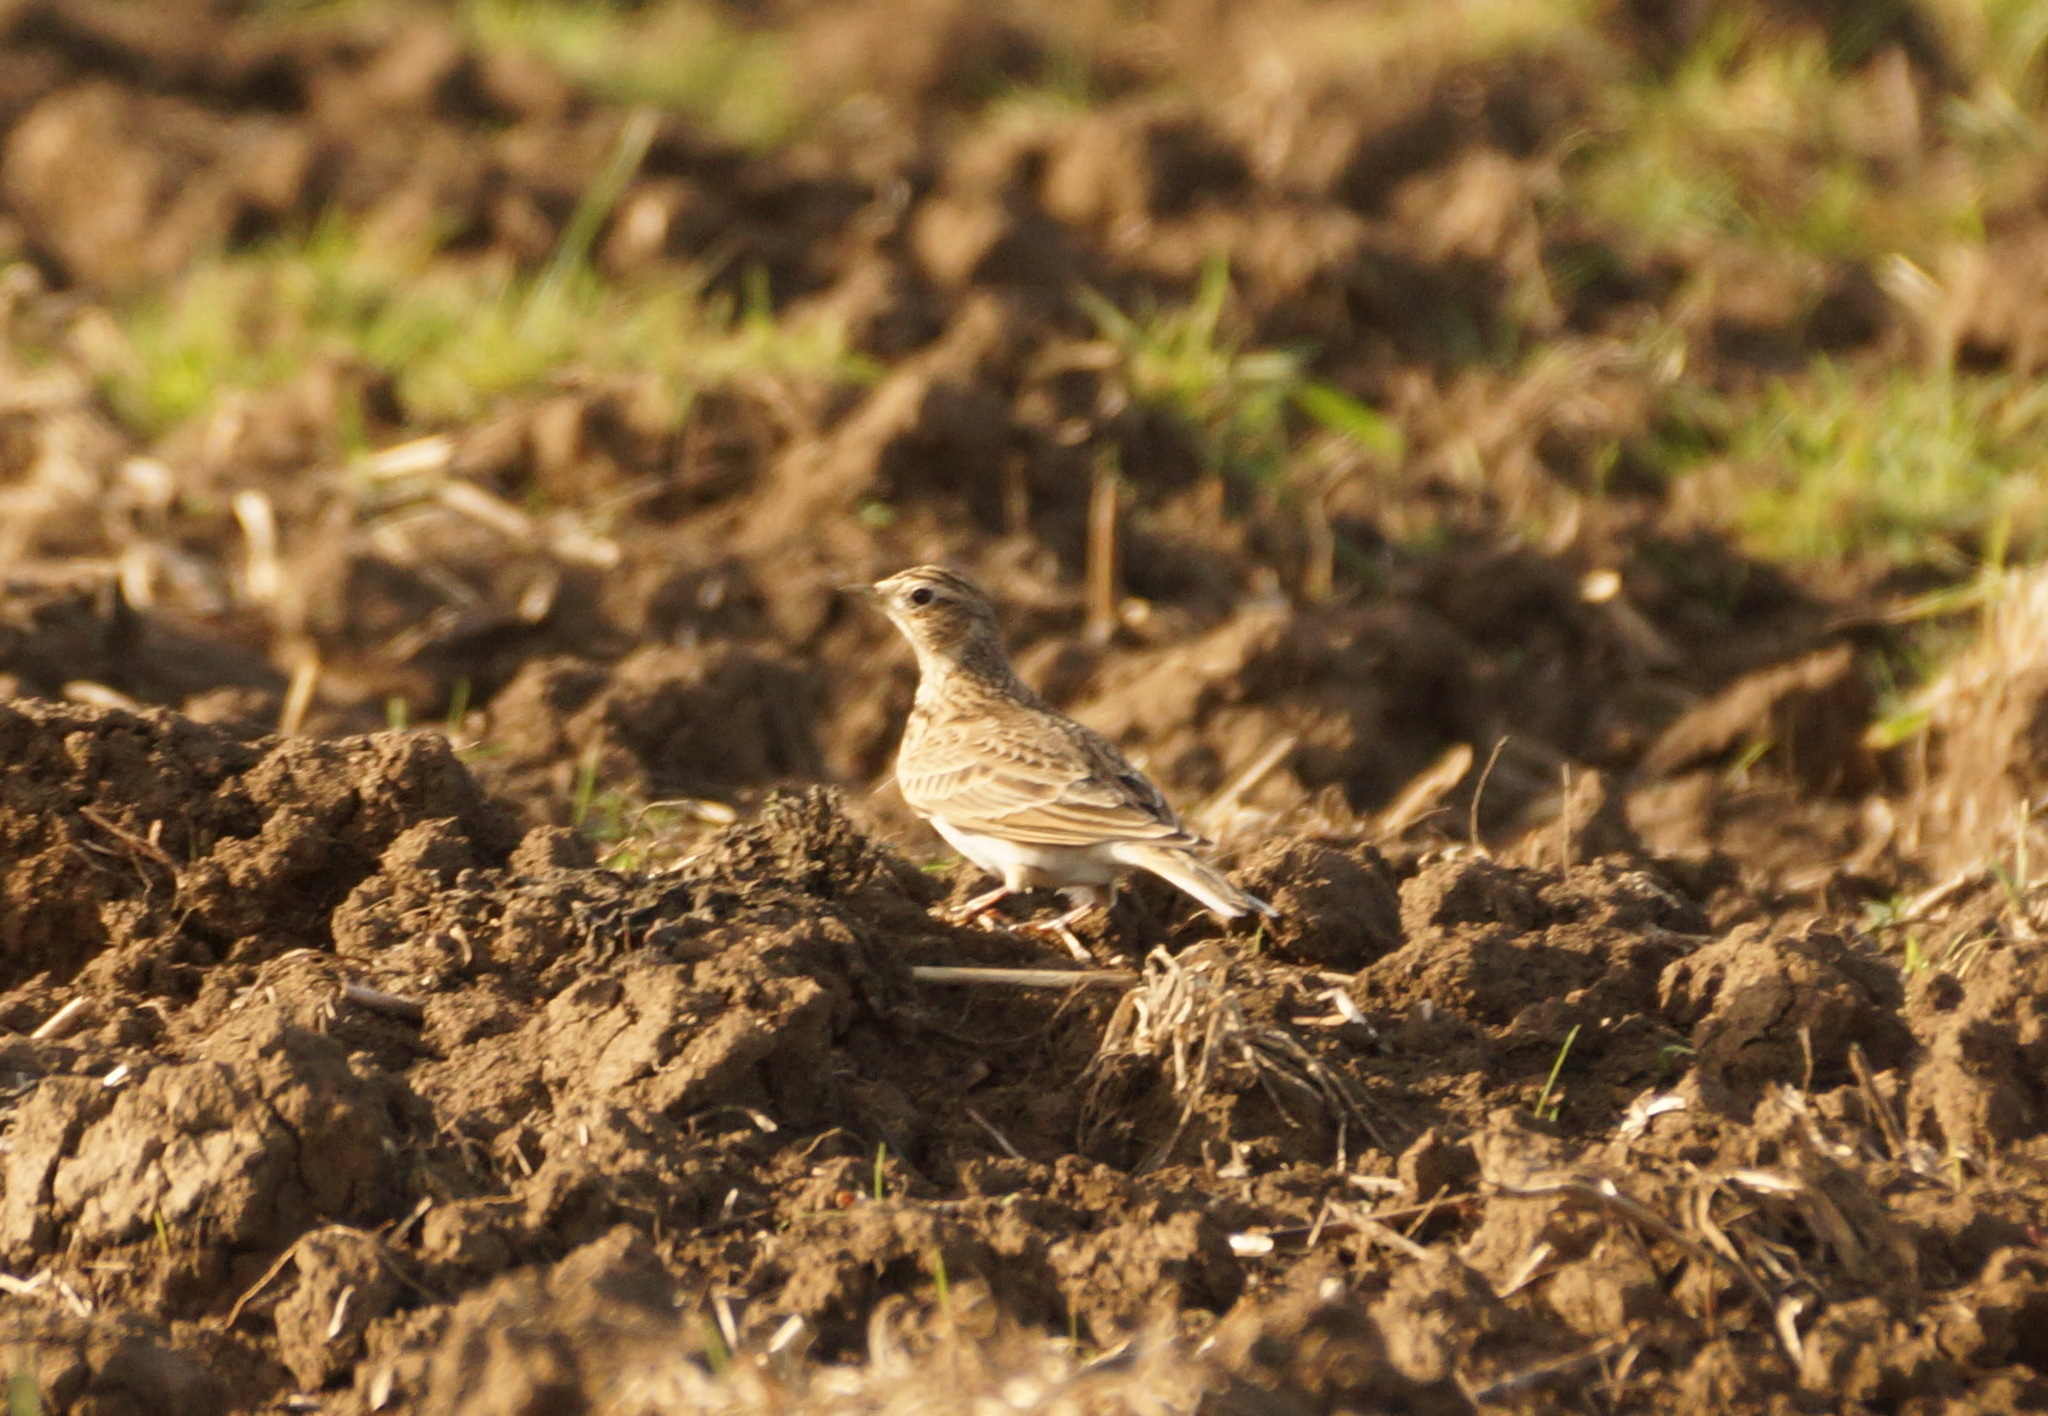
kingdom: Animalia
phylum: Chordata
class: Aves
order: Passeriformes
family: Alaudidae
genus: Alauda
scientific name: Alauda arvensis
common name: Eurasian skylark
